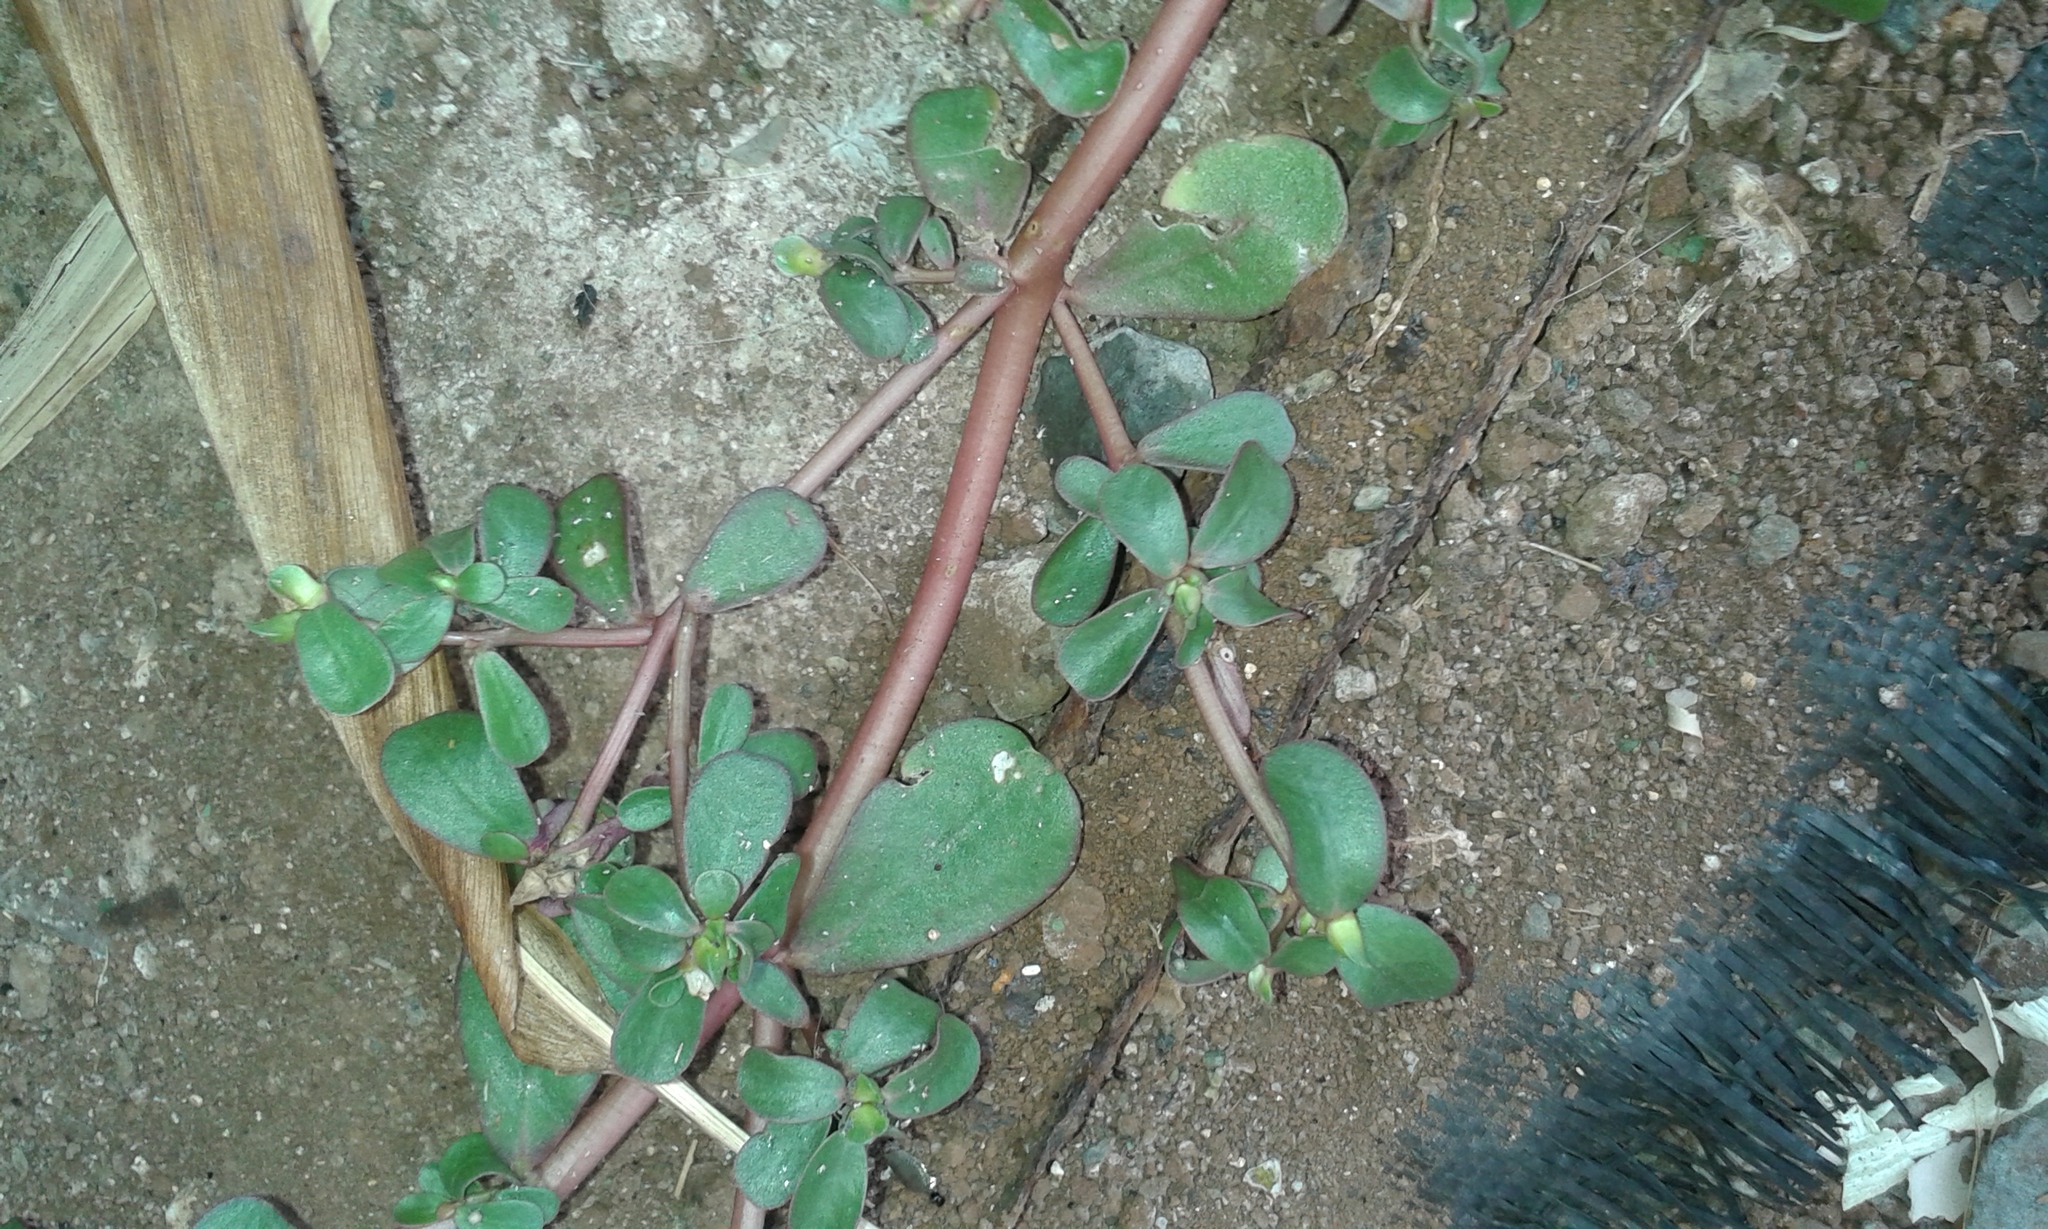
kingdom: Plantae
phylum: Tracheophyta
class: Magnoliopsida
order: Caryophyllales
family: Portulacaceae
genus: Portulaca
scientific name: Portulaca oleracea
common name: Common purslane
